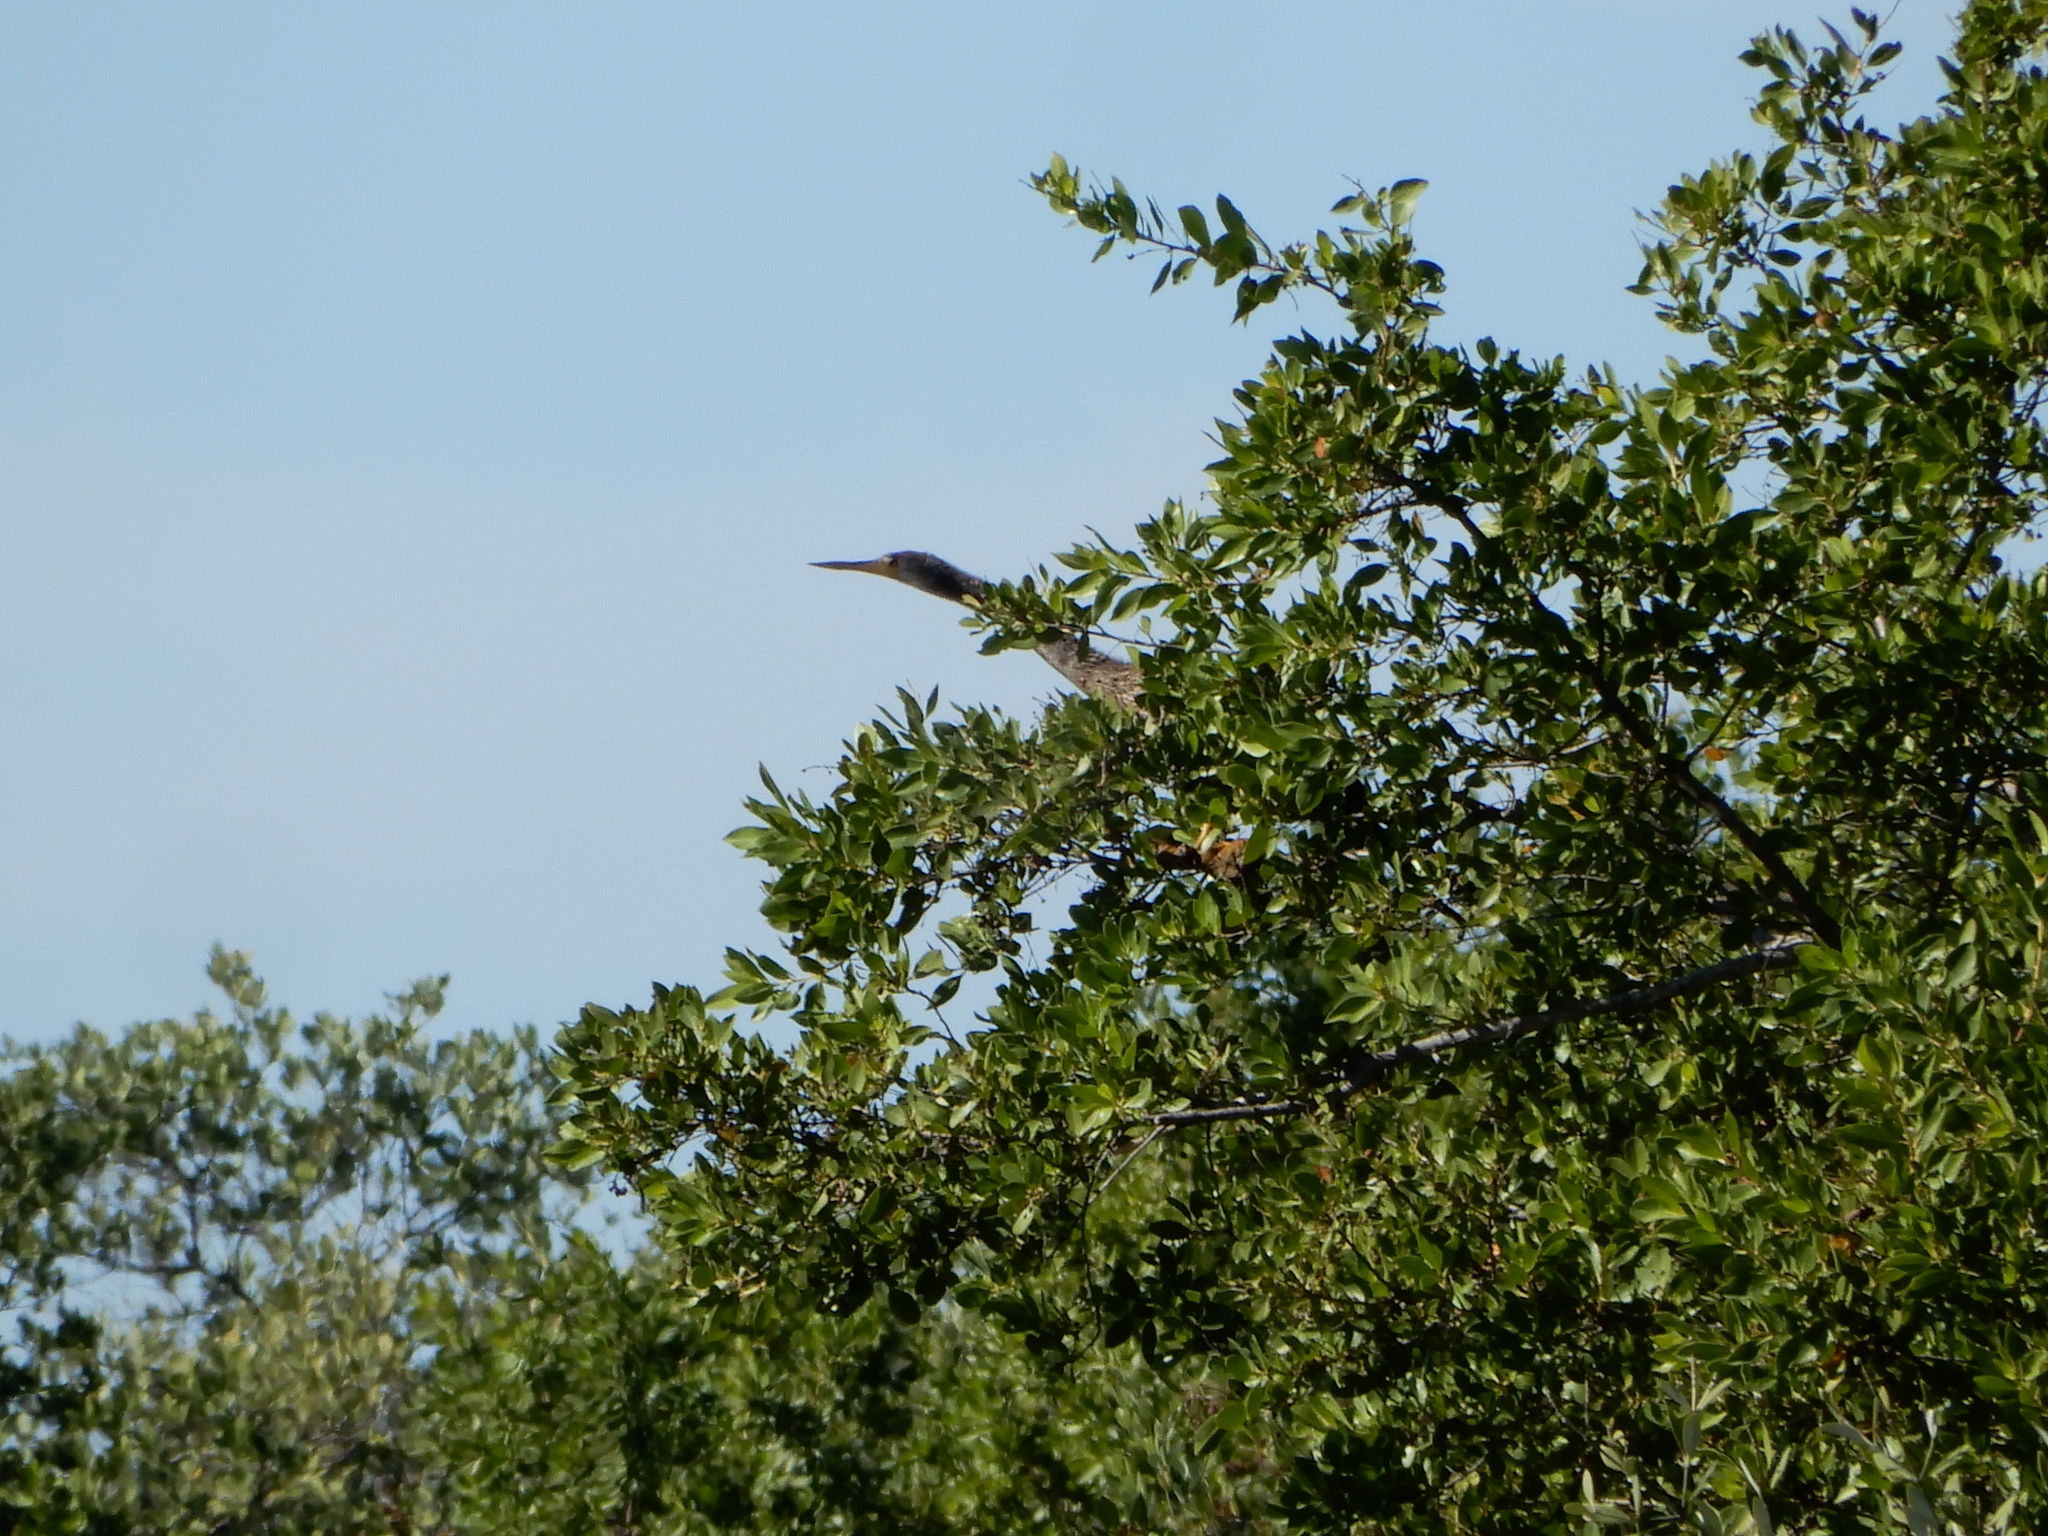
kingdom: Animalia
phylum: Chordata
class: Aves
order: Suliformes
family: Anhingidae
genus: Anhinga
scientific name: Anhinga anhinga
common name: Anhinga
